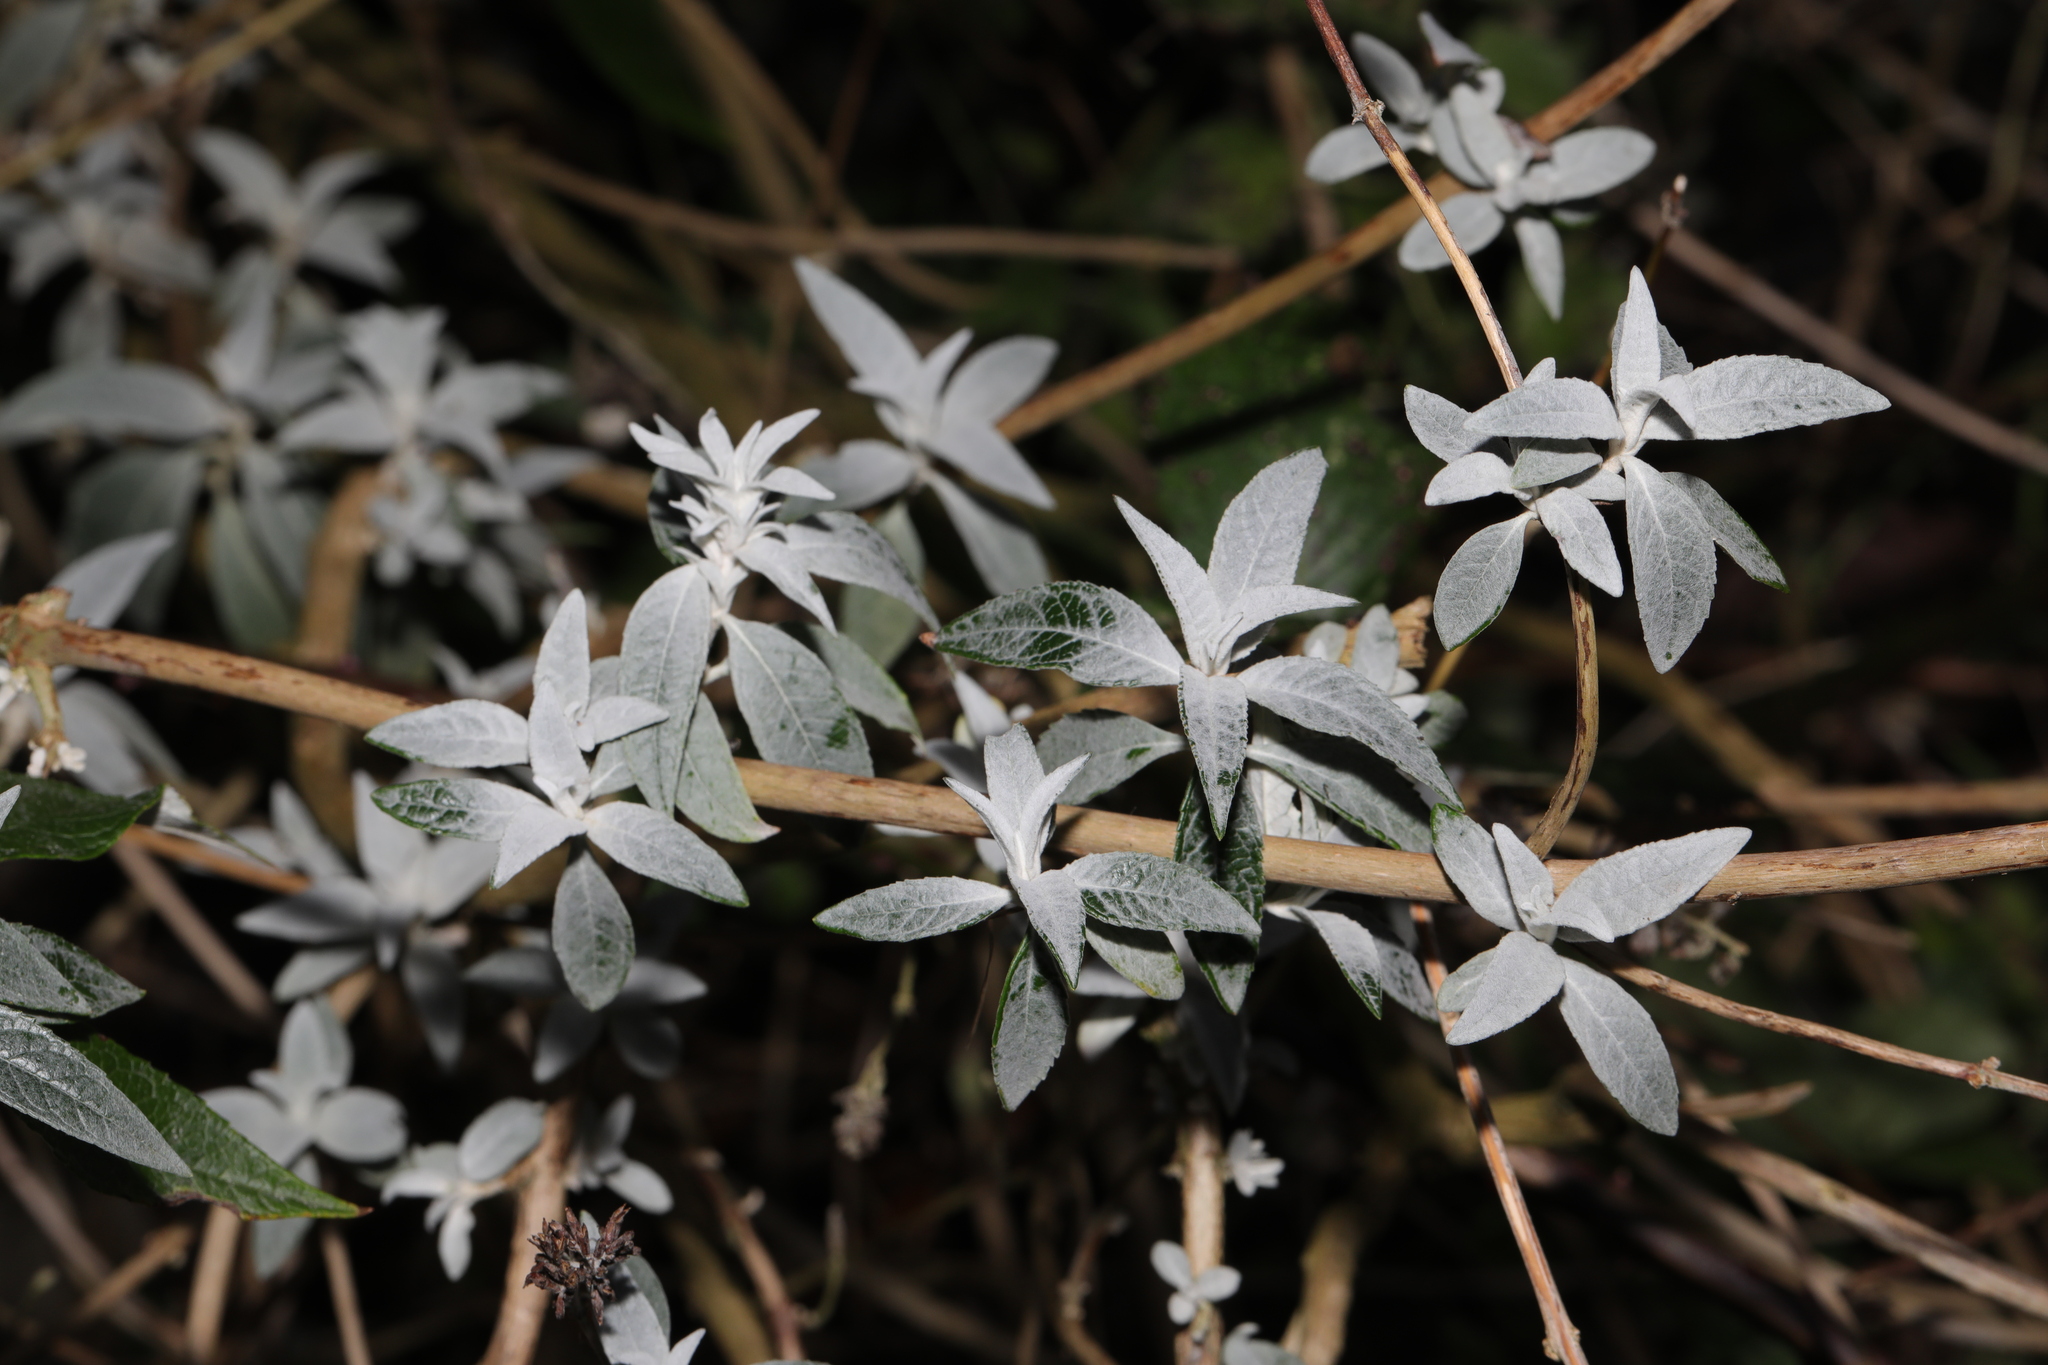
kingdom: Plantae
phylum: Tracheophyta
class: Magnoliopsida
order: Lamiales
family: Scrophulariaceae
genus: Buddleja
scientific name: Buddleja davidii
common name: Butterfly-bush
